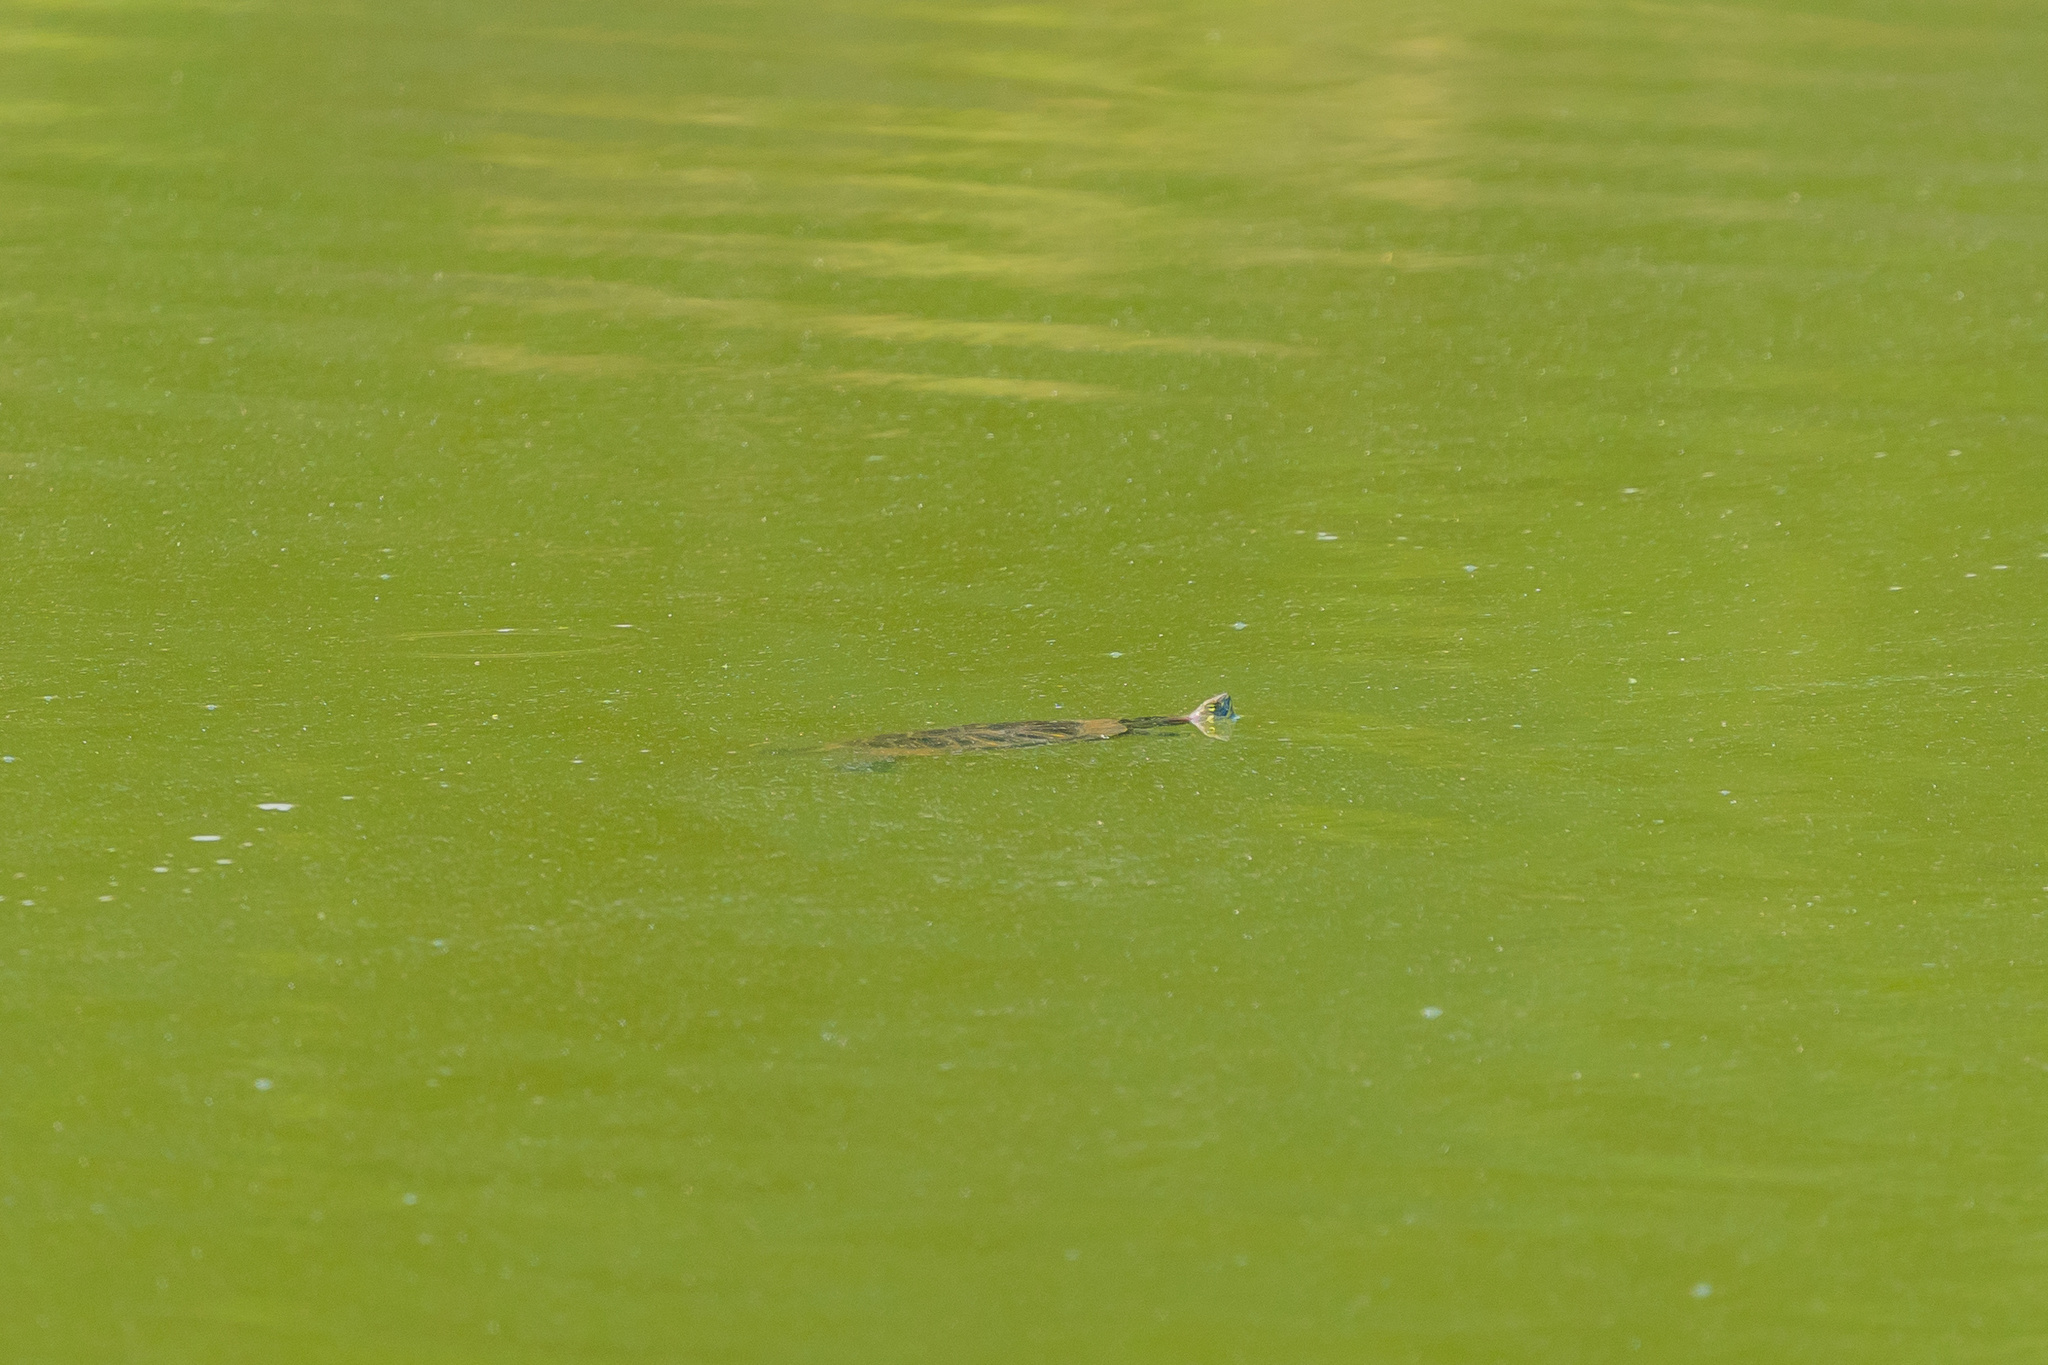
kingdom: Animalia
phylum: Chordata
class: Testudines
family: Emydidae
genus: Trachemys
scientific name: Trachemys scripta
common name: Slider
